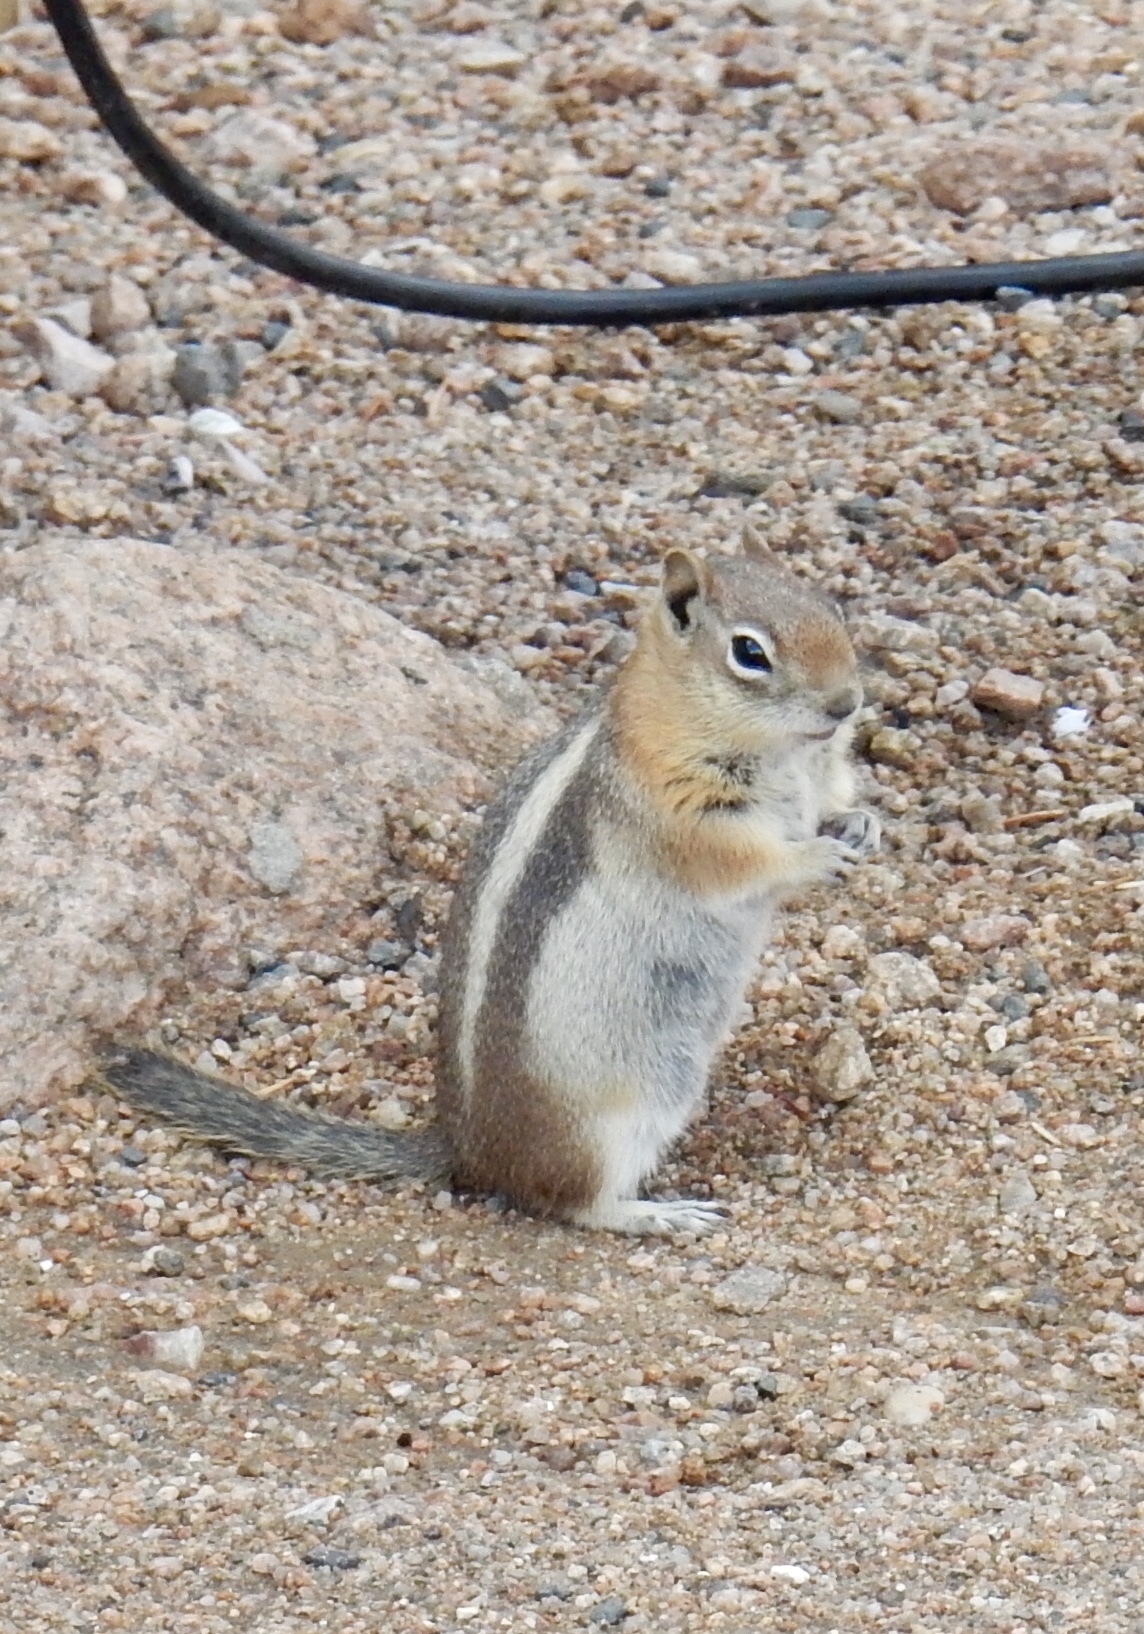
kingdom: Animalia
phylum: Chordata
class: Mammalia
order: Rodentia
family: Sciuridae
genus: Callospermophilus
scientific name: Callospermophilus lateralis
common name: Golden-mantled ground squirrel
